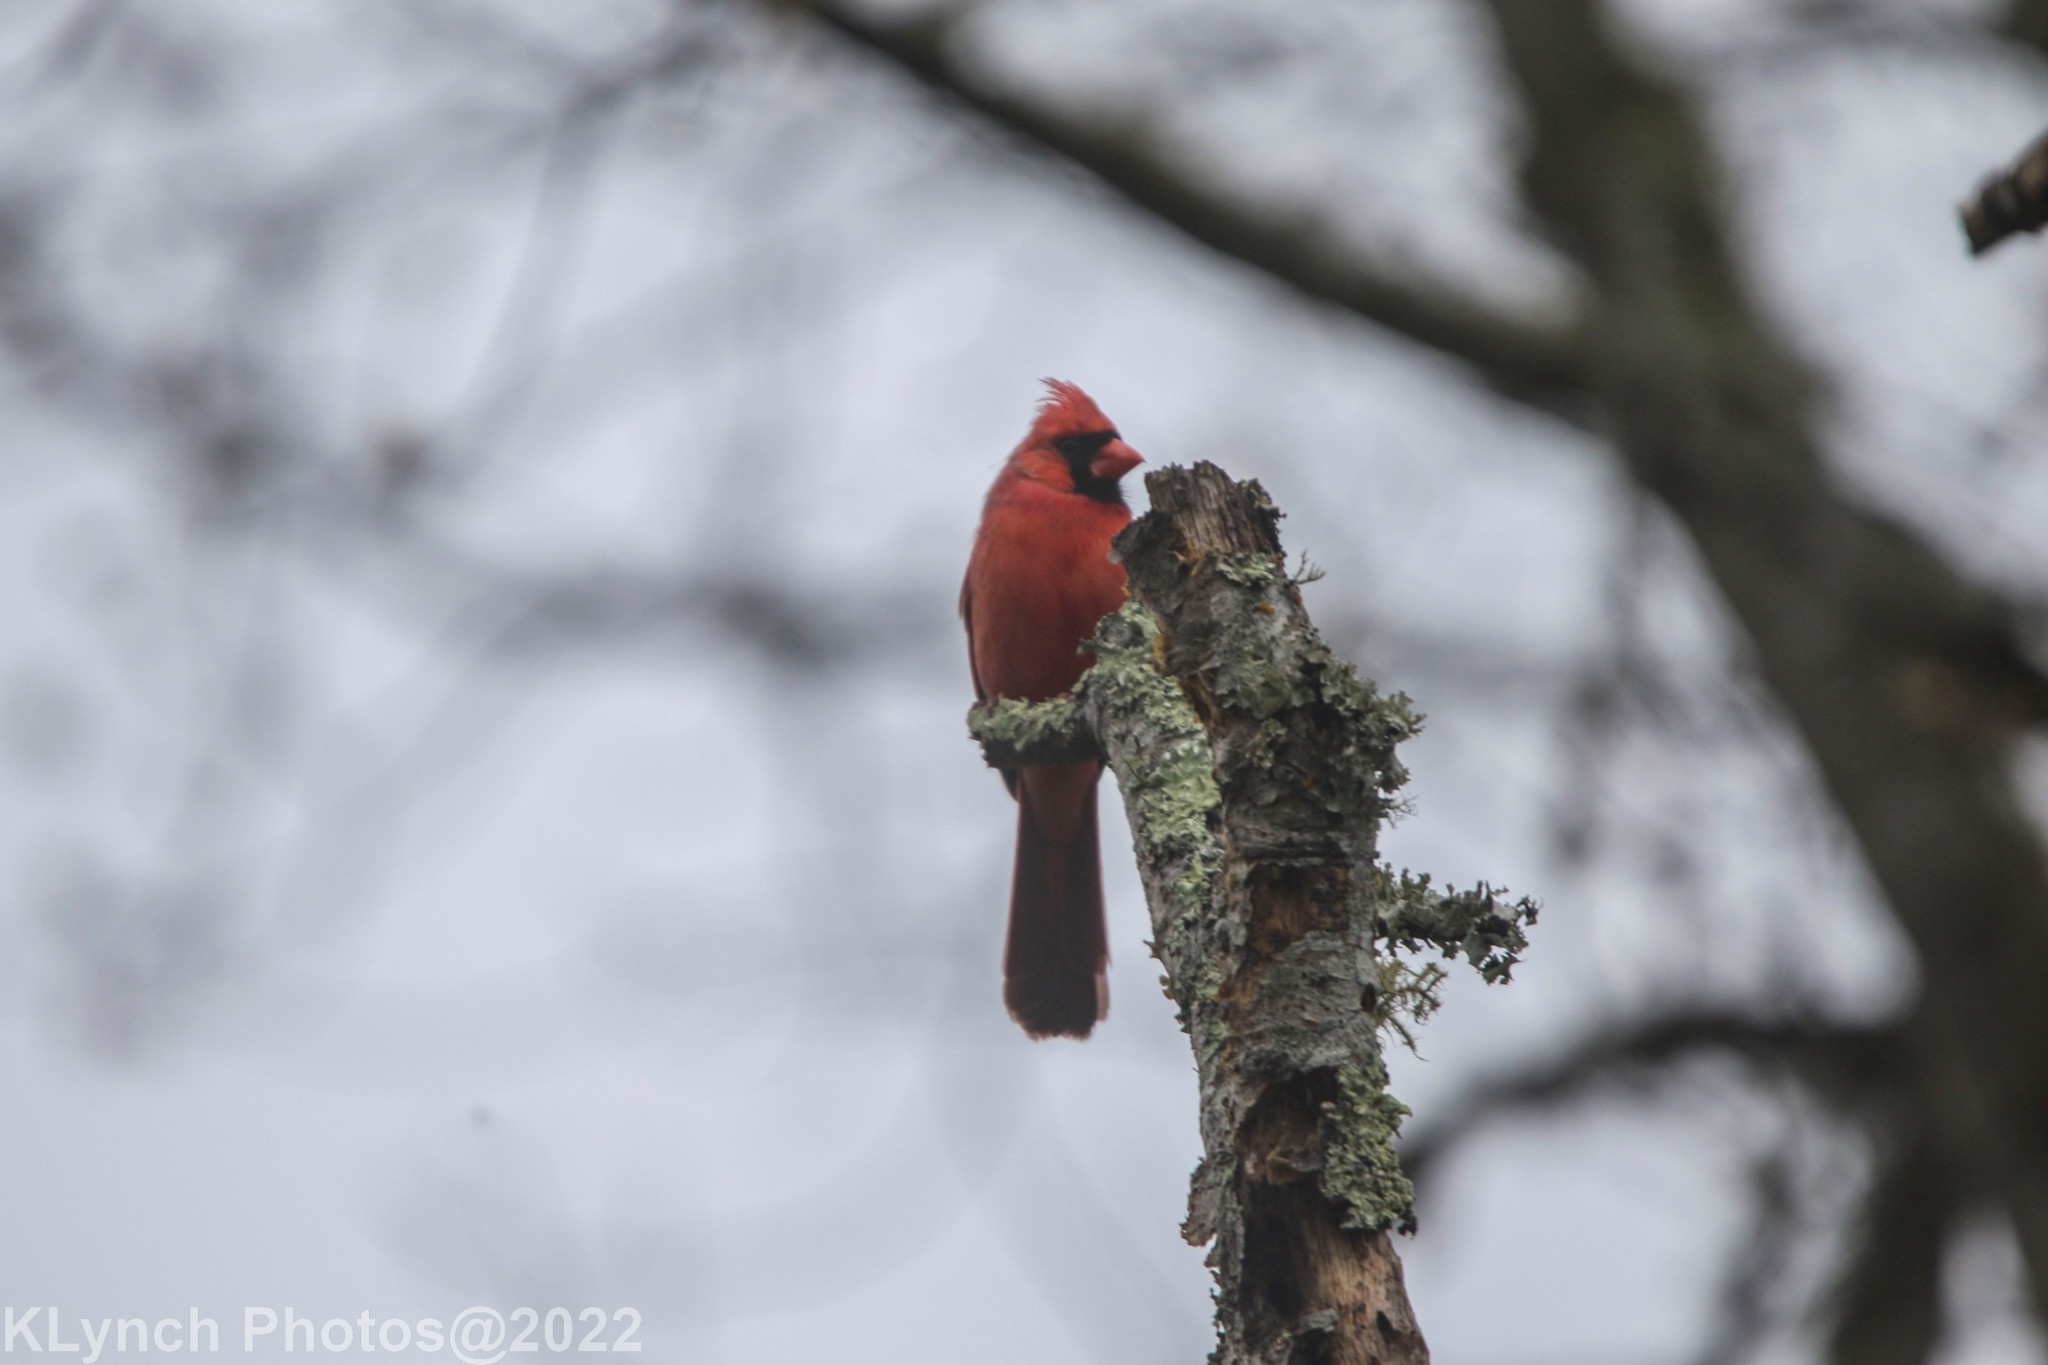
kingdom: Animalia
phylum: Chordata
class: Aves
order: Passeriformes
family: Cardinalidae
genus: Cardinalis
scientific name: Cardinalis cardinalis
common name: Northern cardinal
